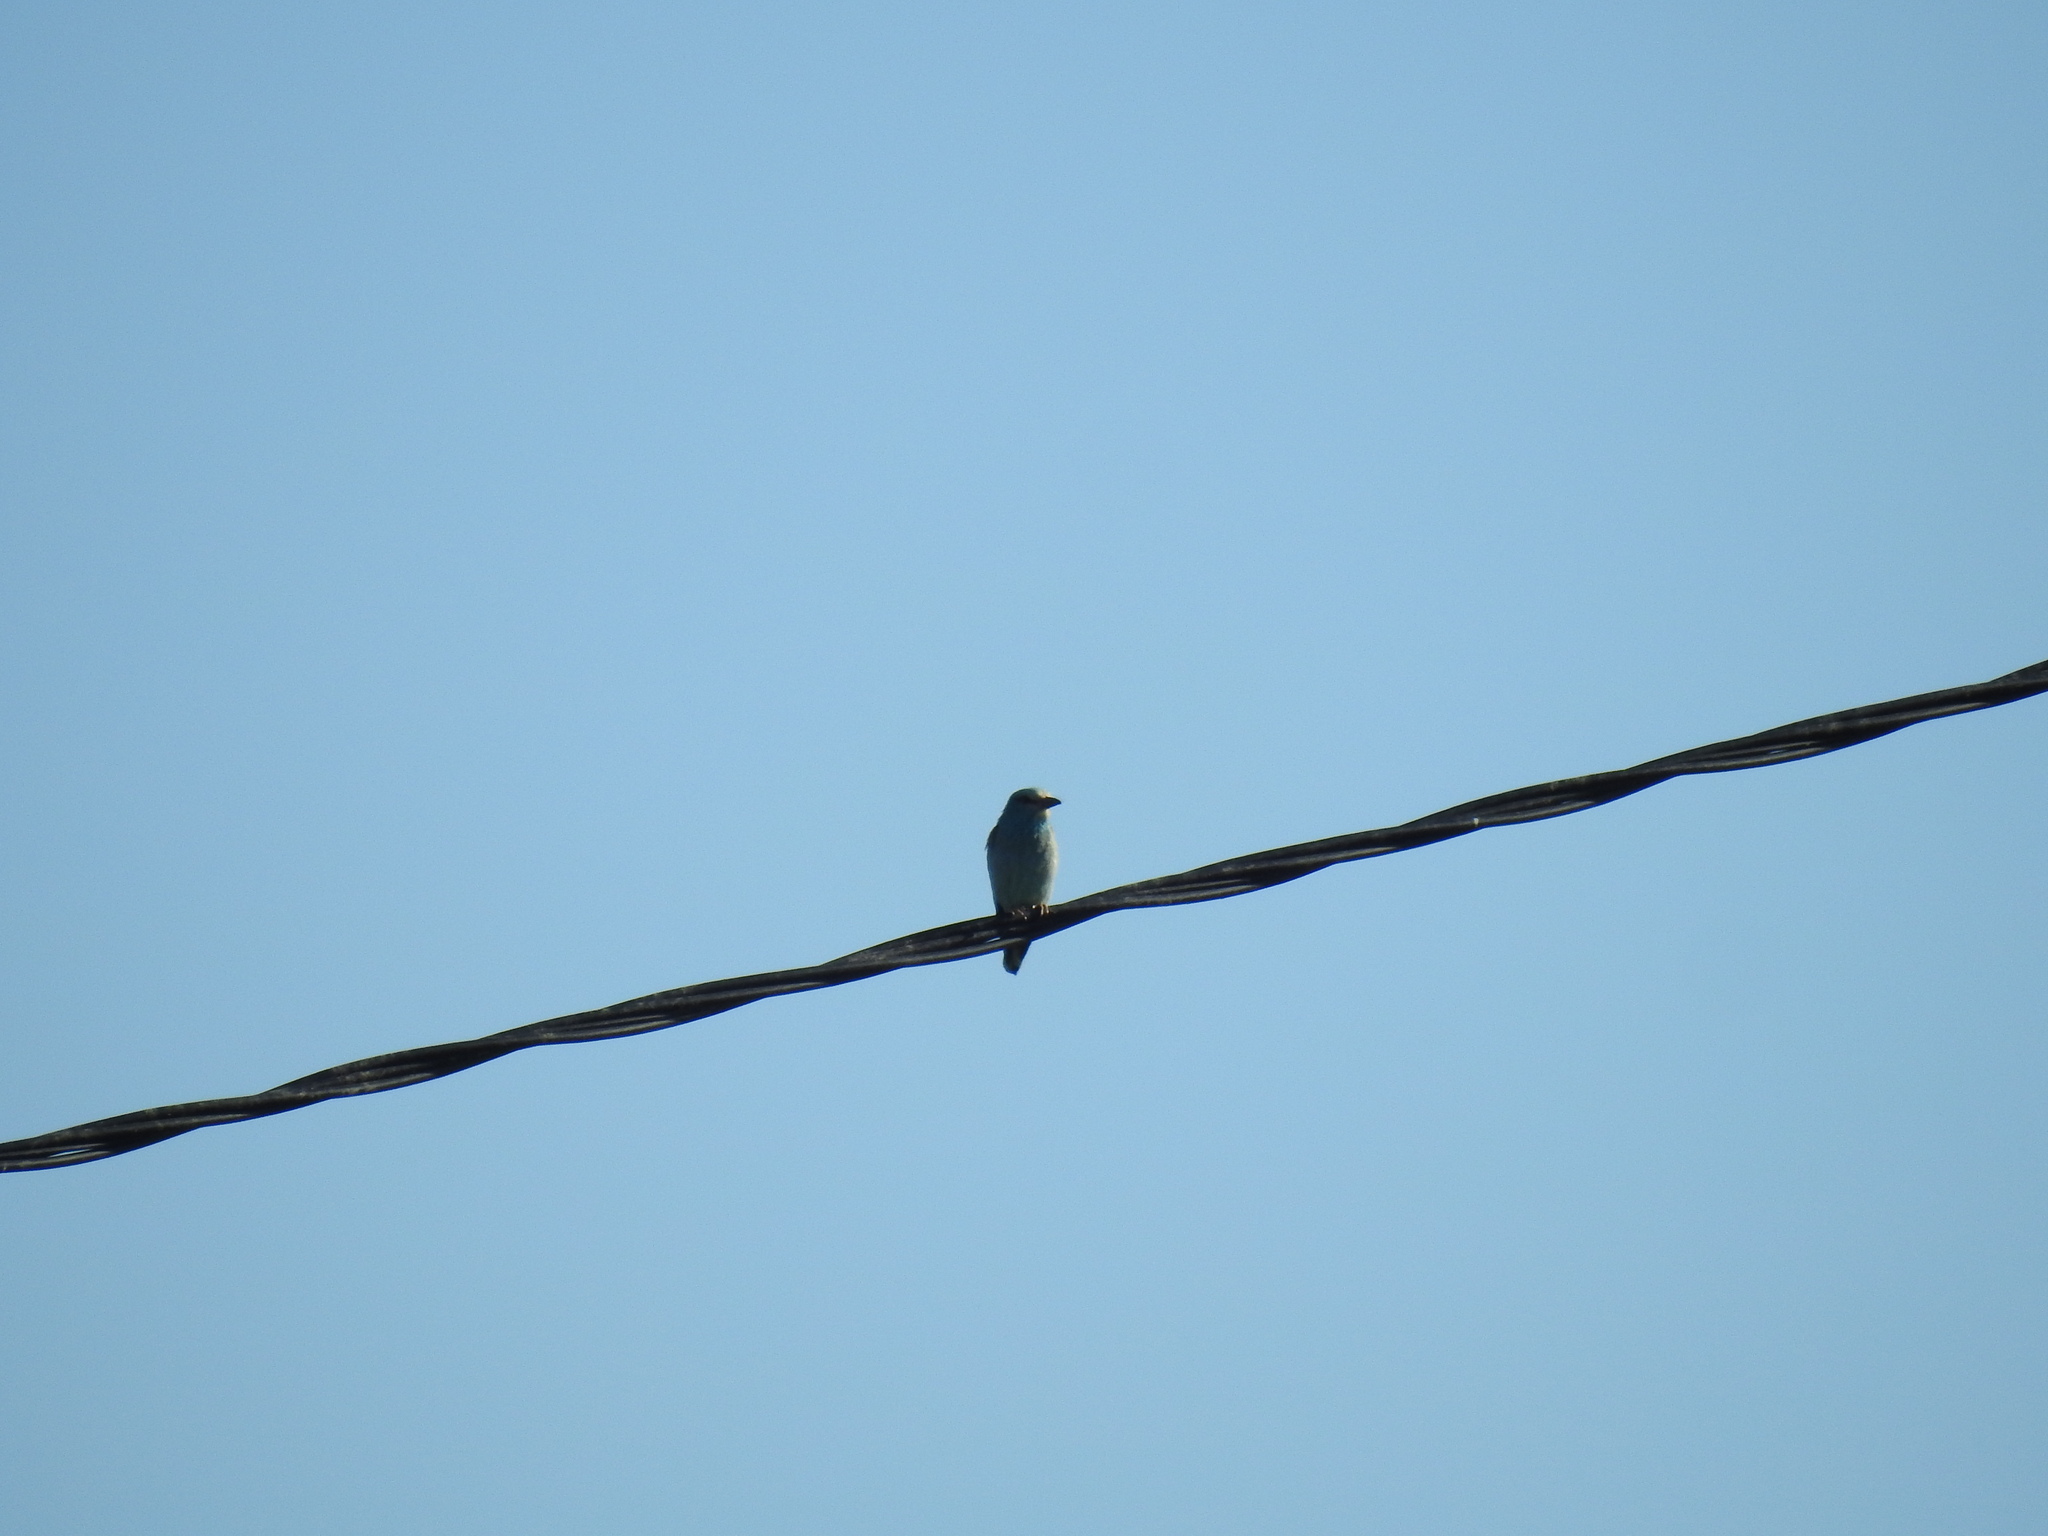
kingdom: Animalia
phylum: Chordata
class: Aves
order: Coraciiformes
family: Coraciidae
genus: Coracias
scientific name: Coracias garrulus
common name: European roller
